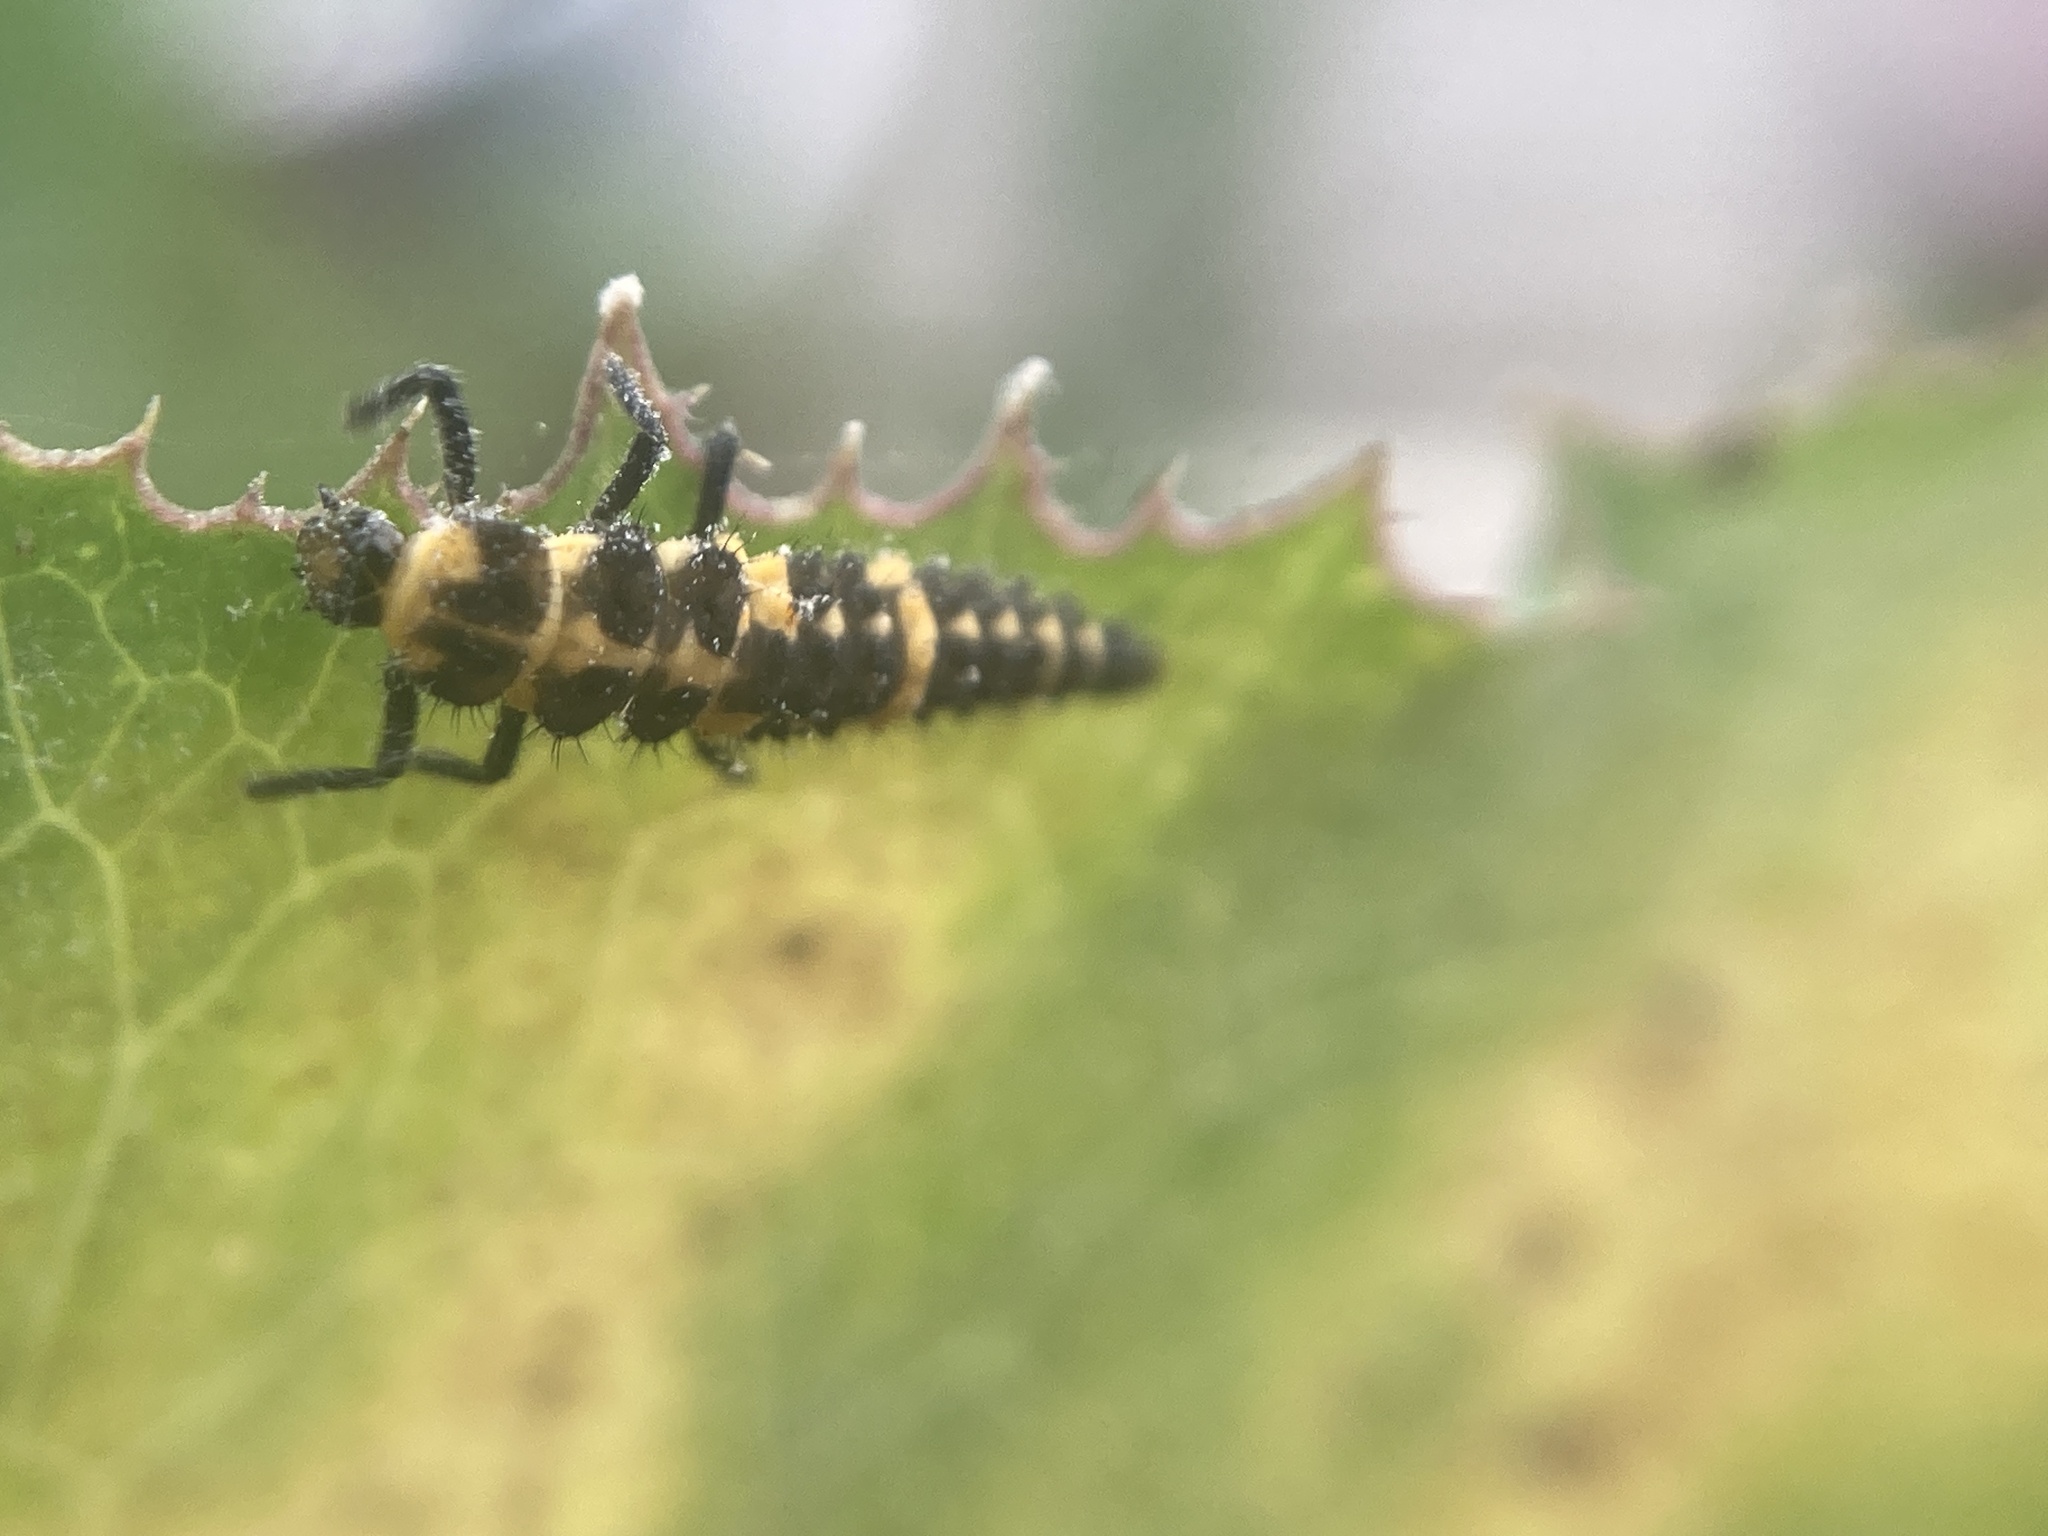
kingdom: Animalia
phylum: Arthropoda
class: Insecta
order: Coleoptera
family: Coccinellidae
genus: Coleomegilla
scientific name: Coleomegilla maculata
